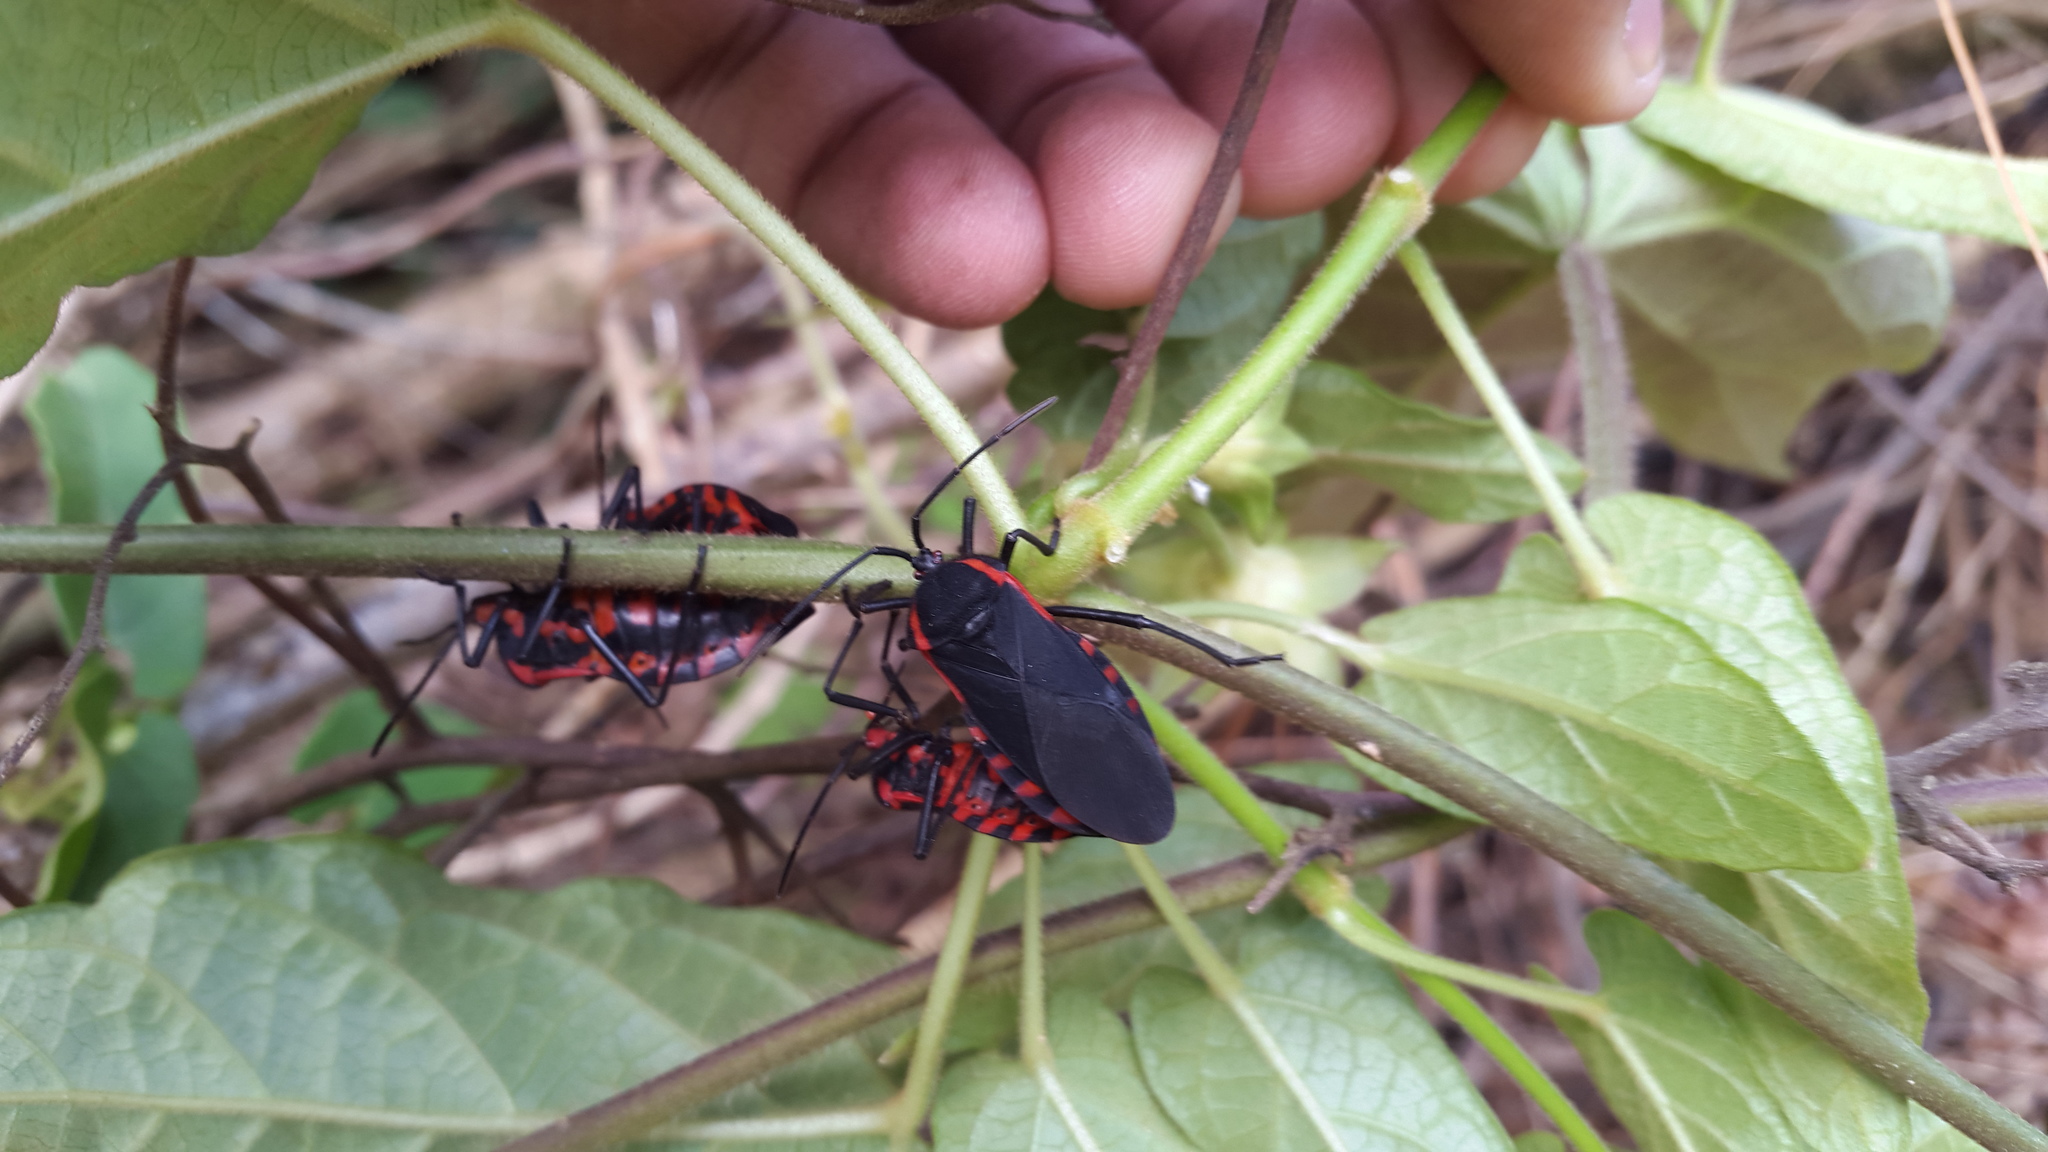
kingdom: Animalia
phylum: Arthropoda
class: Insecta
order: Hemiptera
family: Coreidae
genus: Sephina
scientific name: Sephina esquivalae
